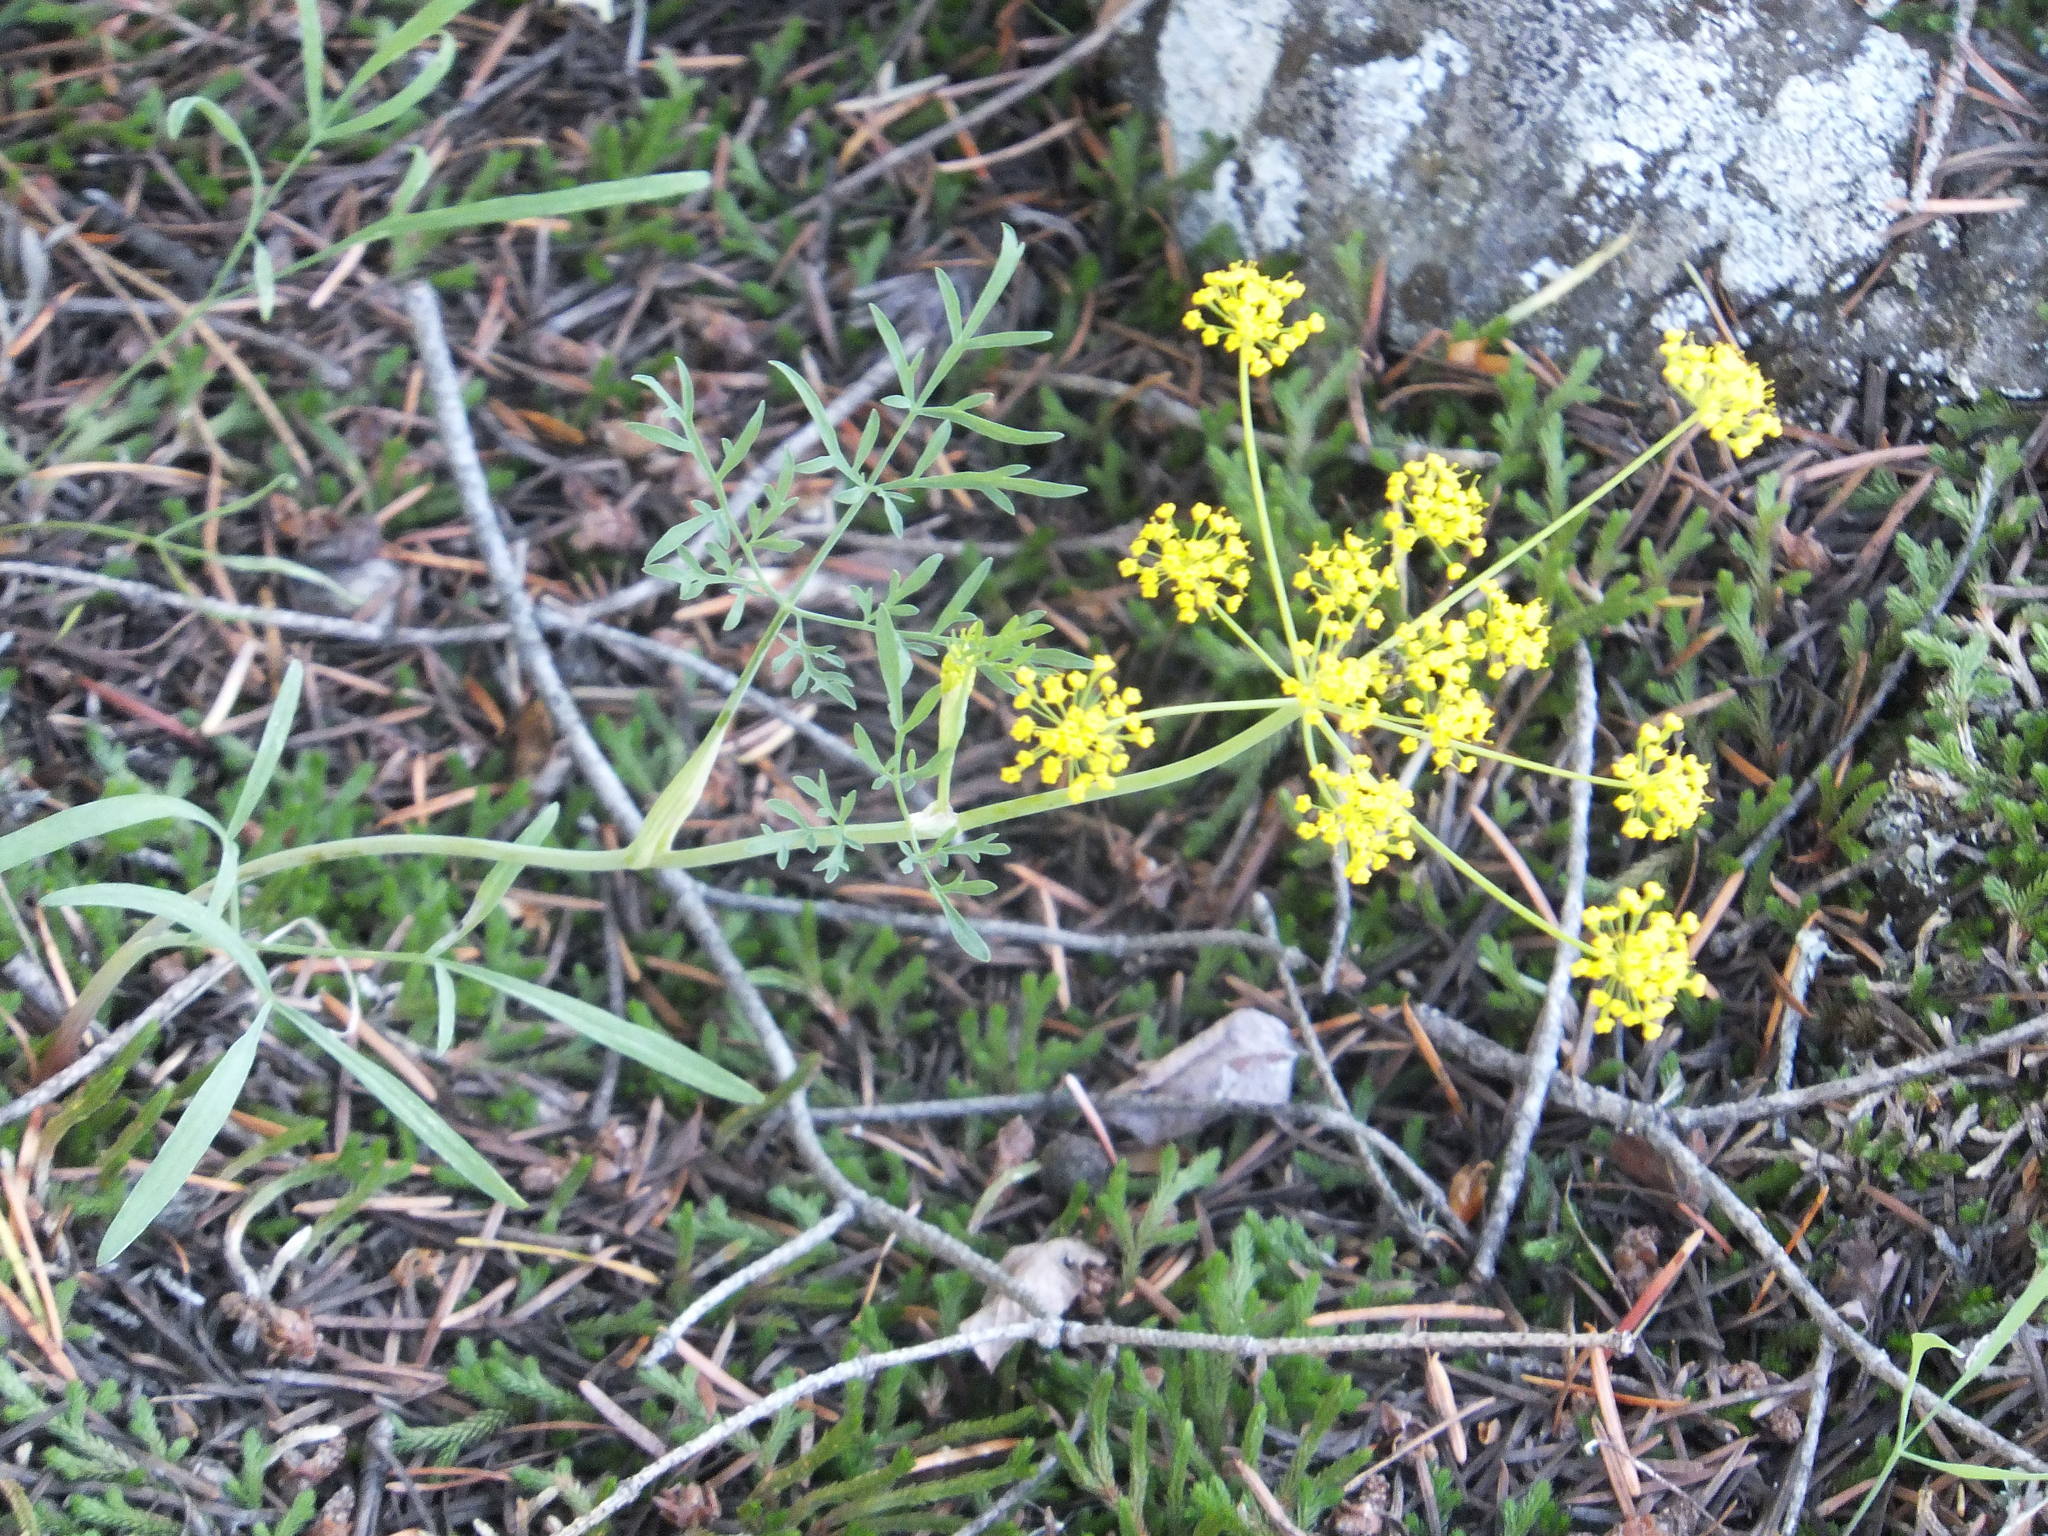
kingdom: Plantae
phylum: Tracheophyta
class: Magnoliopsida
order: Apiales
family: Apiaceae
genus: Lomatium
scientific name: Lomatium ambiguum
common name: Lacy lomatium
